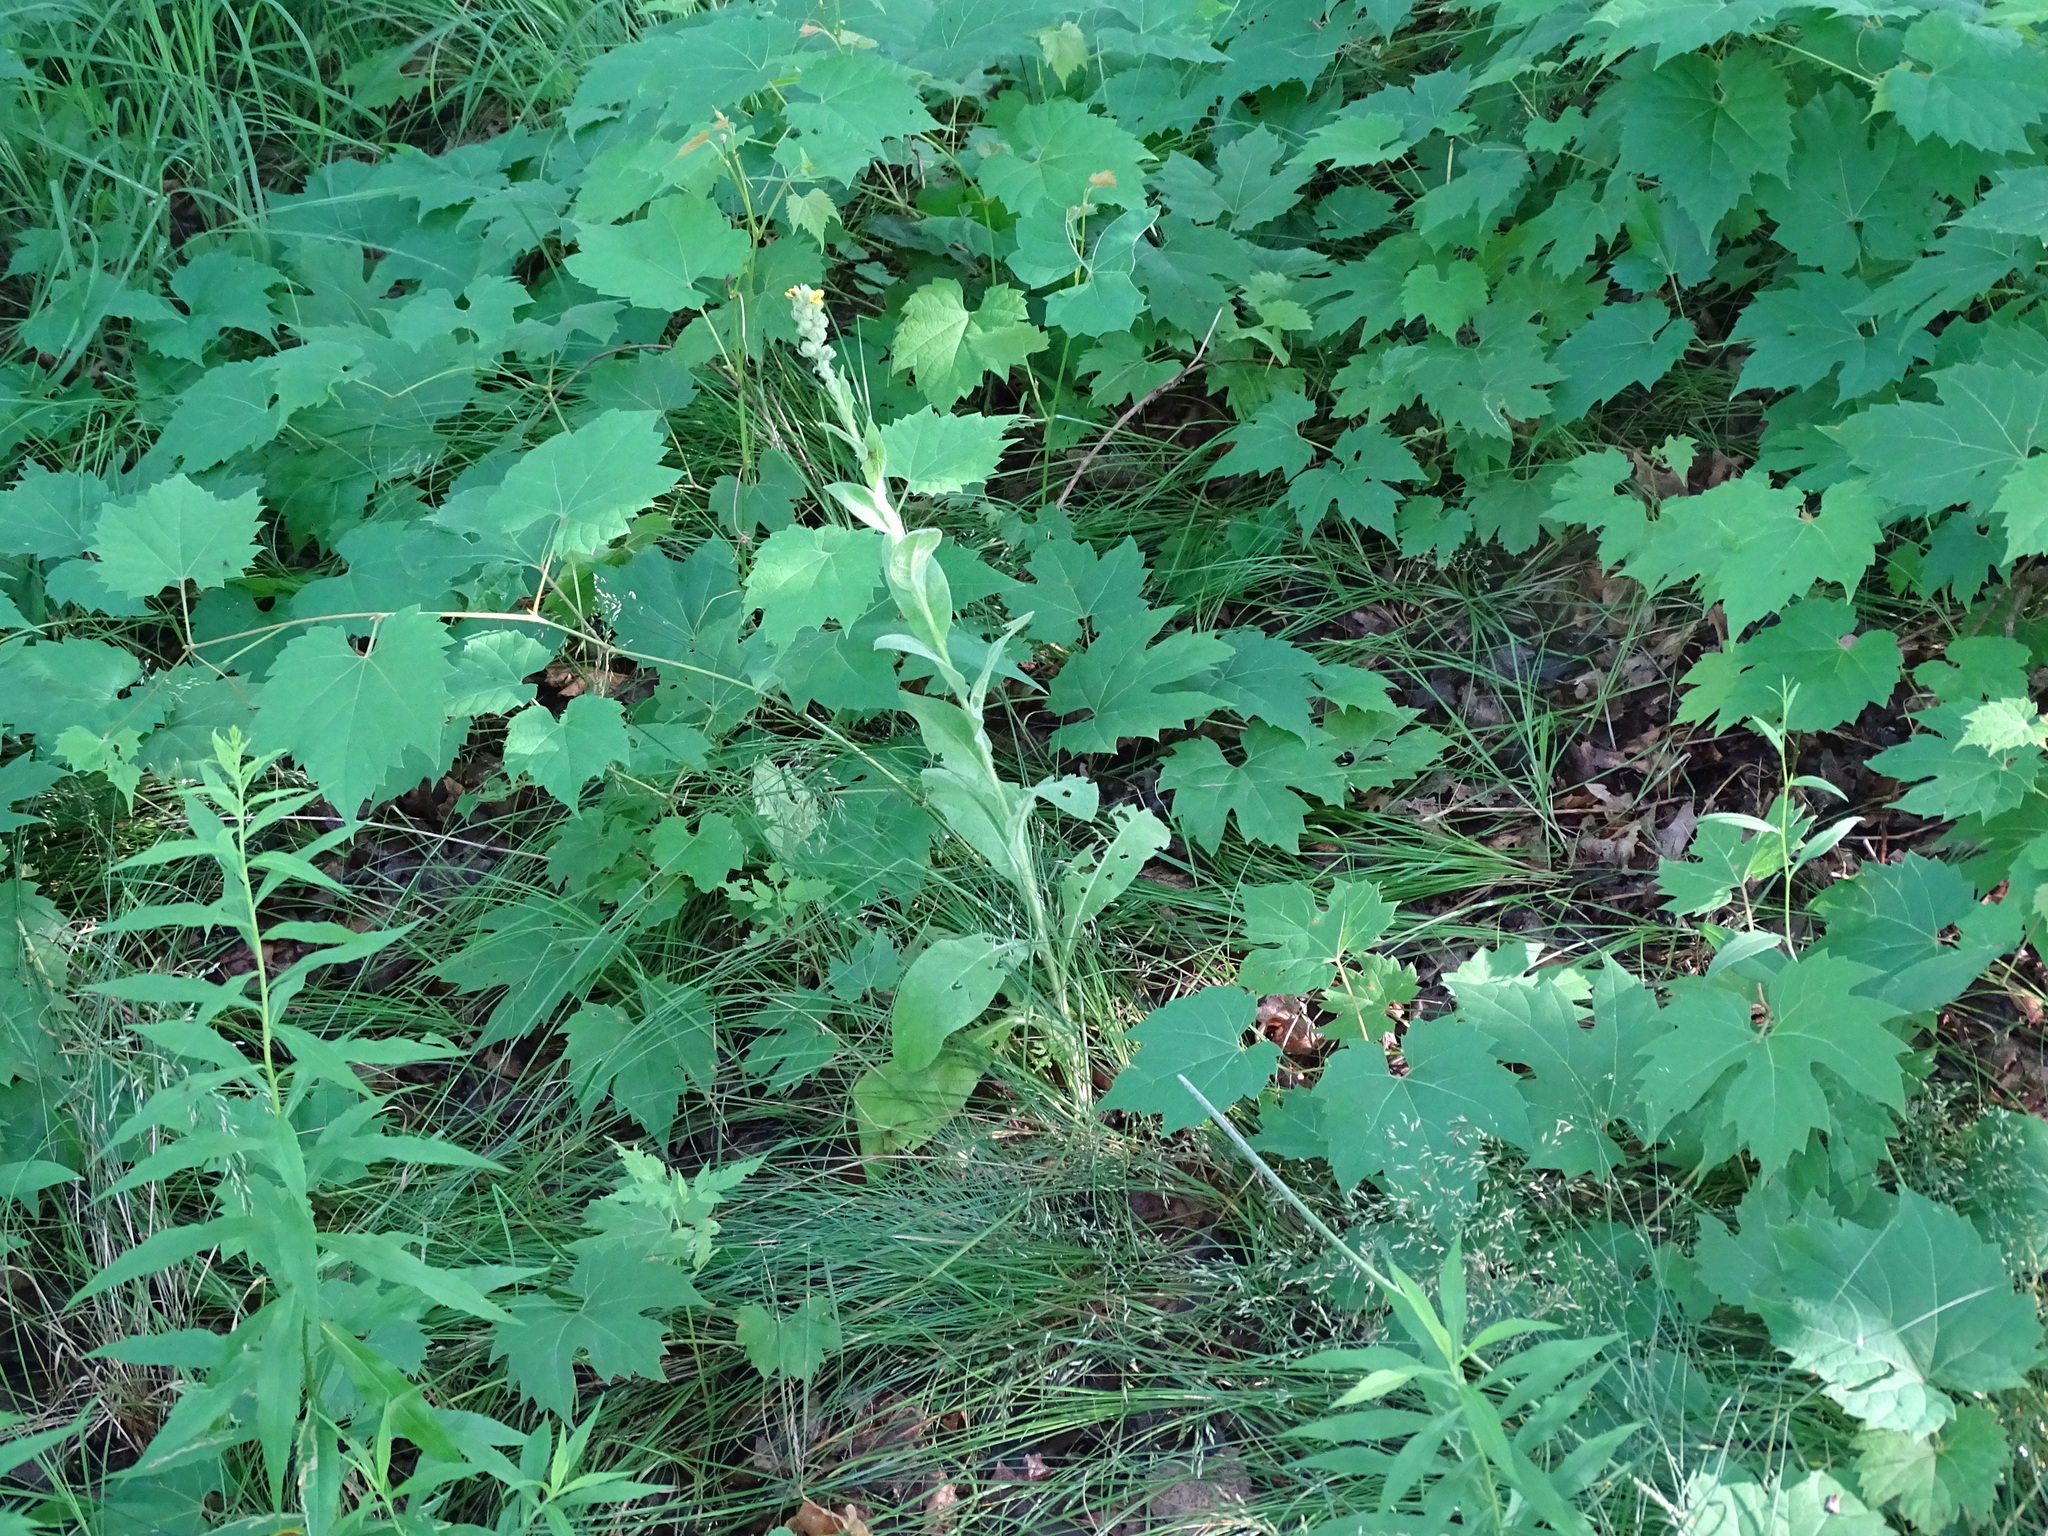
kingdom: Plantae
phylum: Tracheophyta
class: Magnoliopsida
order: Lamiales
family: Scrophulariaceae
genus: Verbascum
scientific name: Verbascum thapsus
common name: Common mullein
